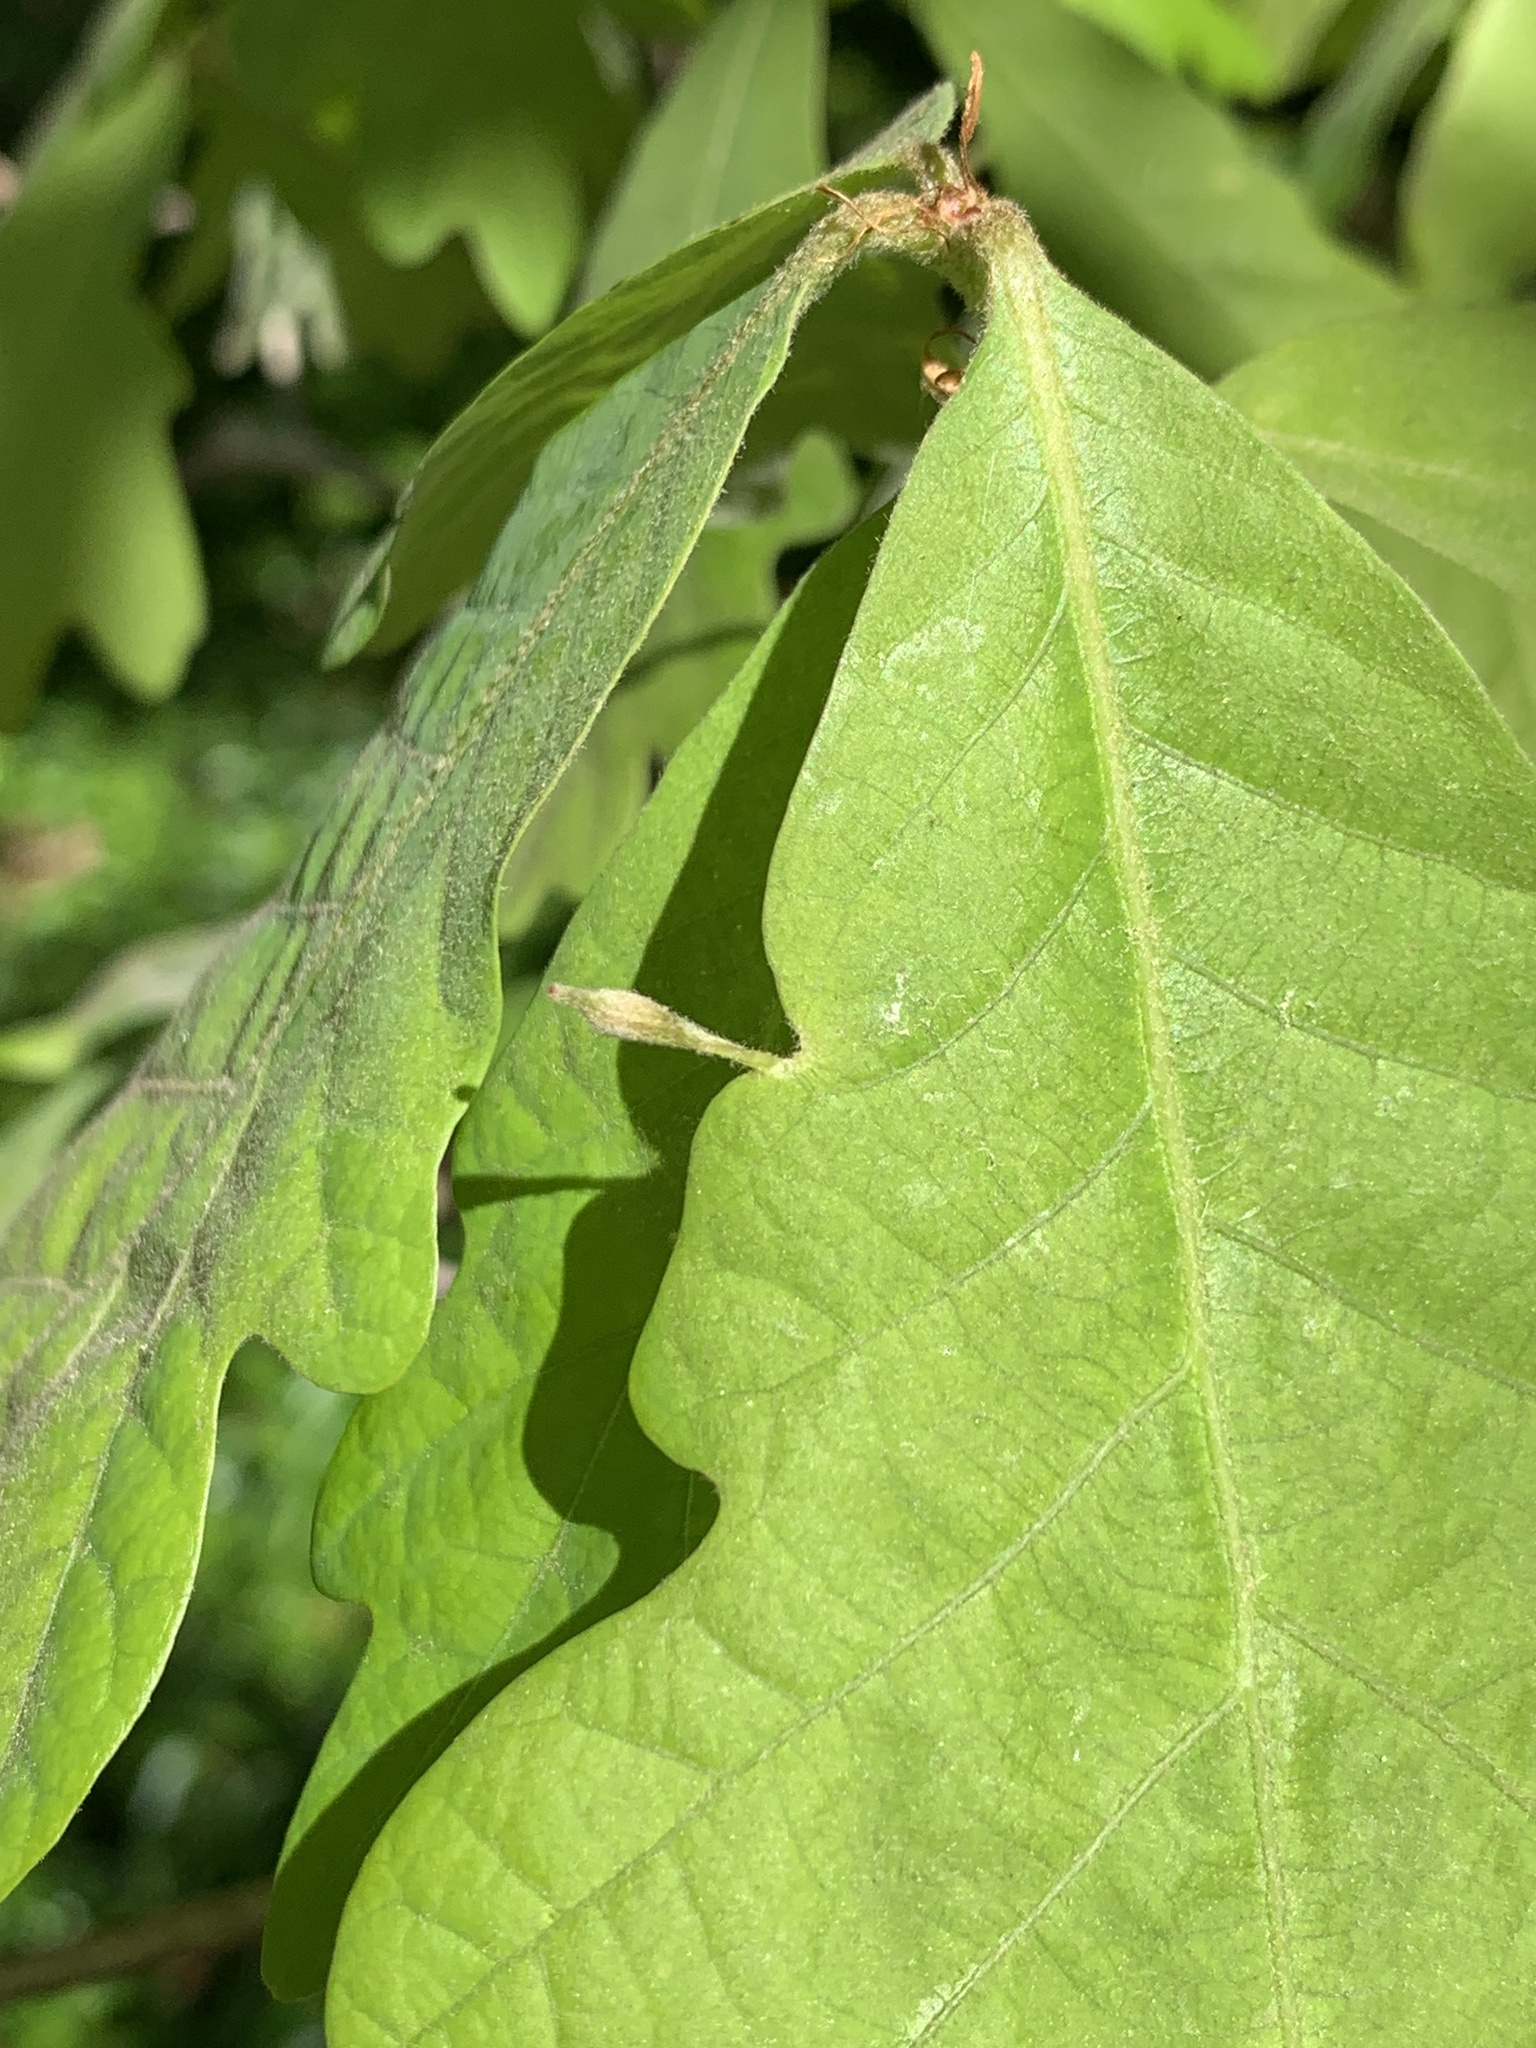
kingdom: Animalia
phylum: Arthropoda
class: Insecta
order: Hymenoptera
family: Cynipidae
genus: Andricus
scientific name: Andricus
